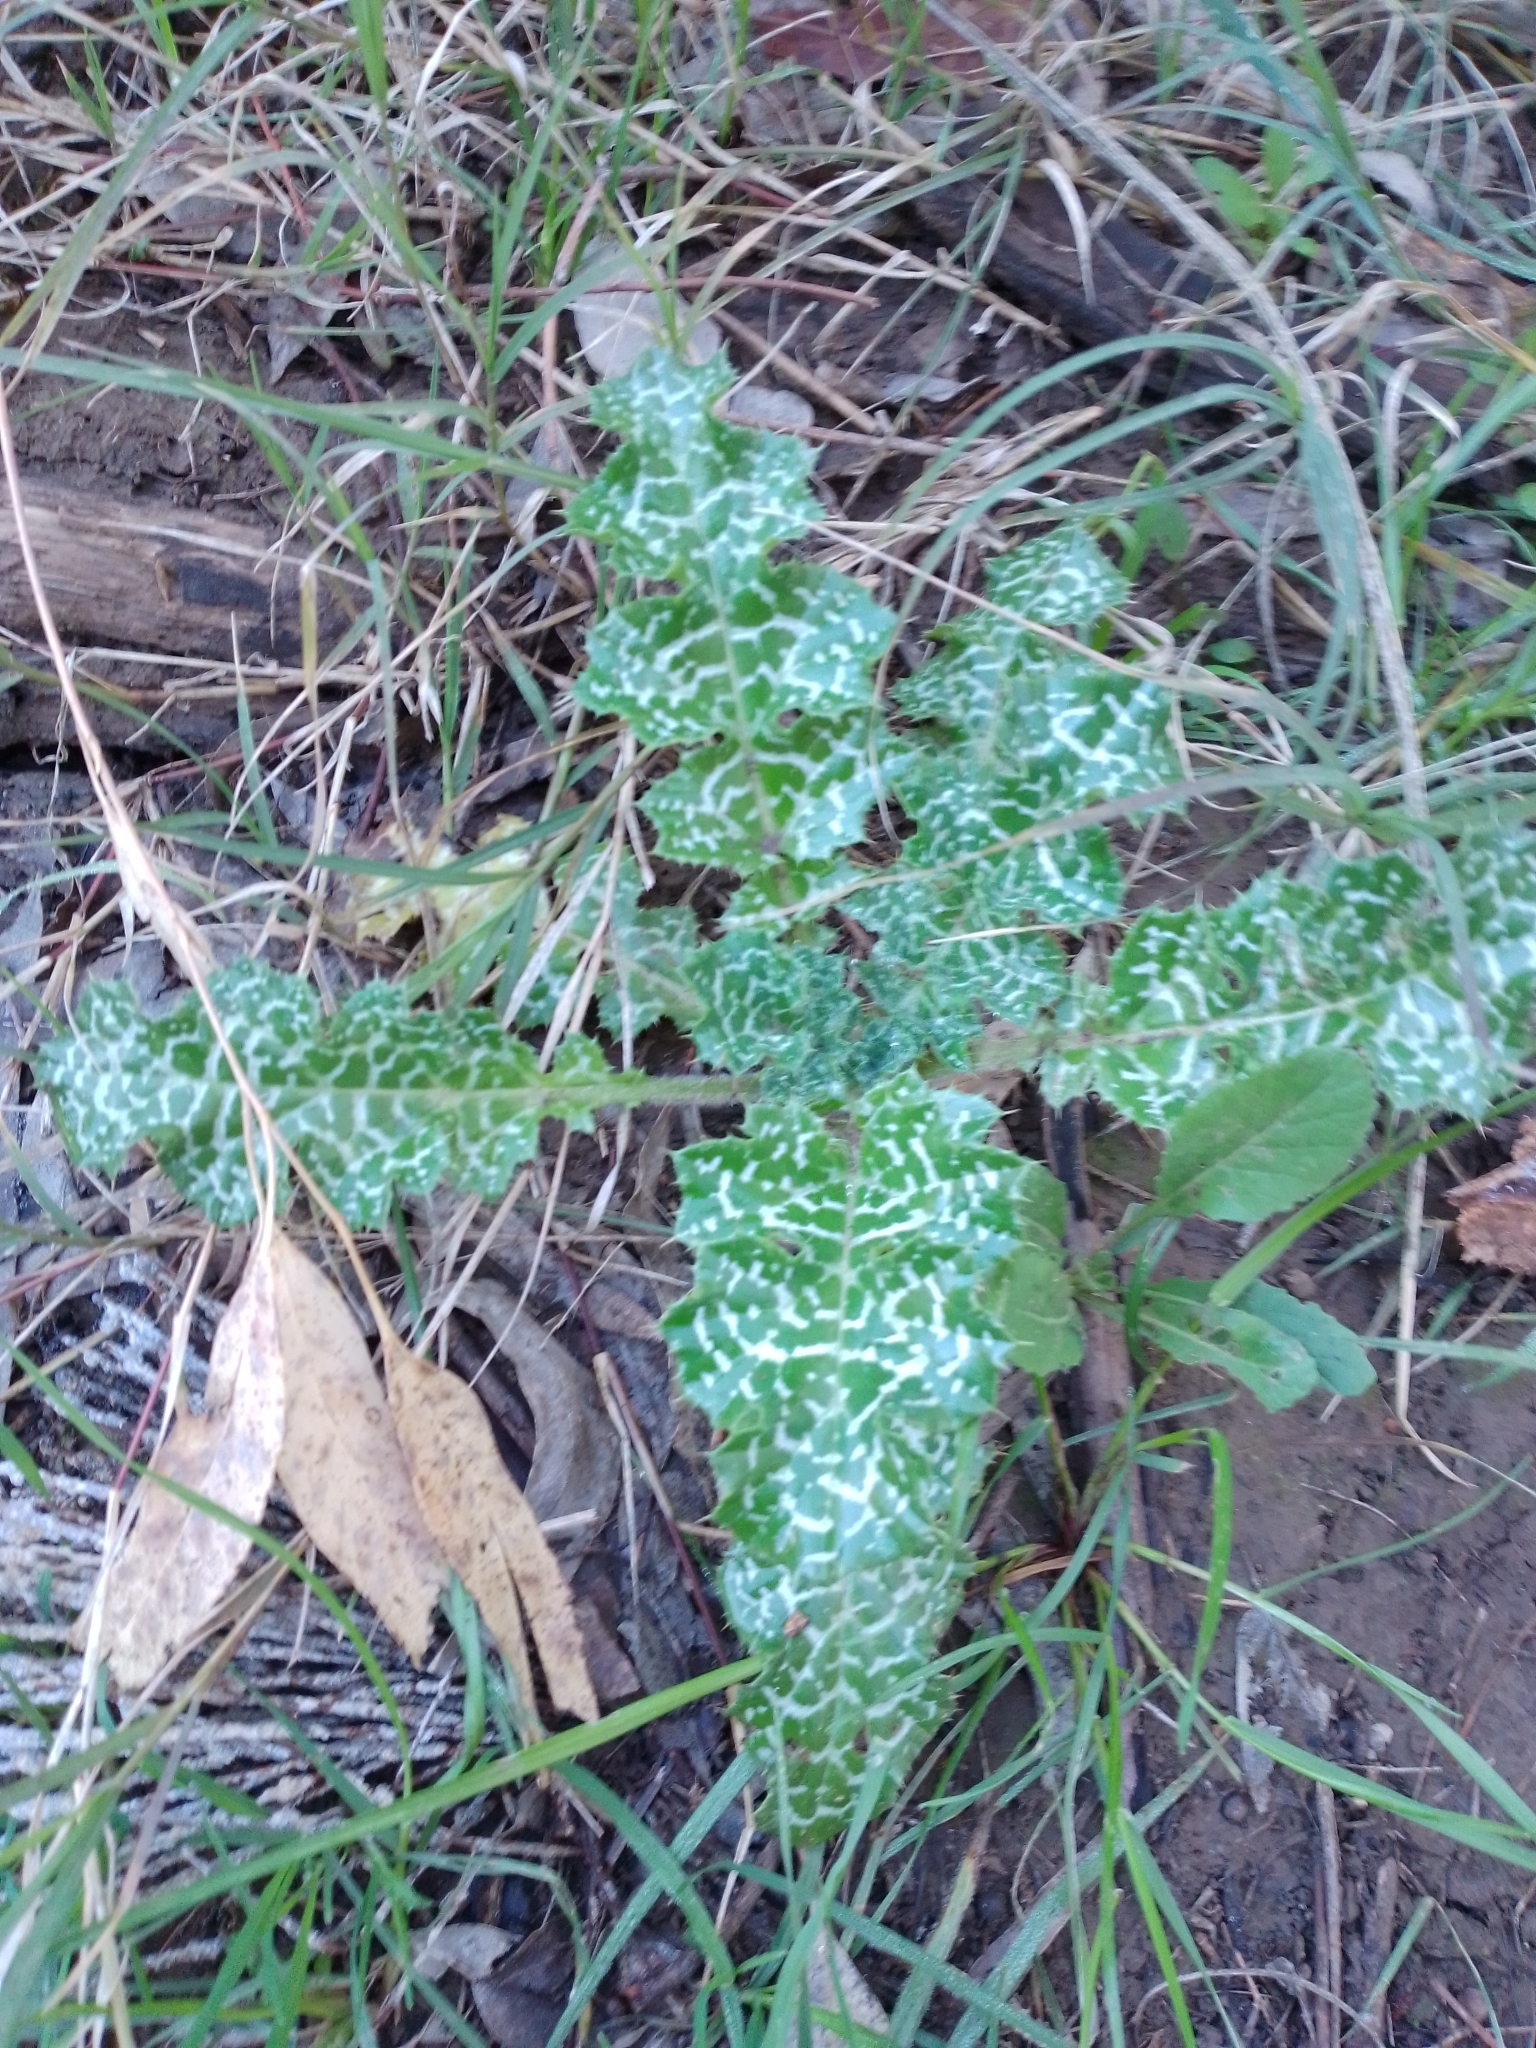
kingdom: Plantae
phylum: Tracheophyta
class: Magnoliopsida
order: Asterales
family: Asteraceae
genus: Silybum
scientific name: Silybum marianum
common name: Milk thistle
